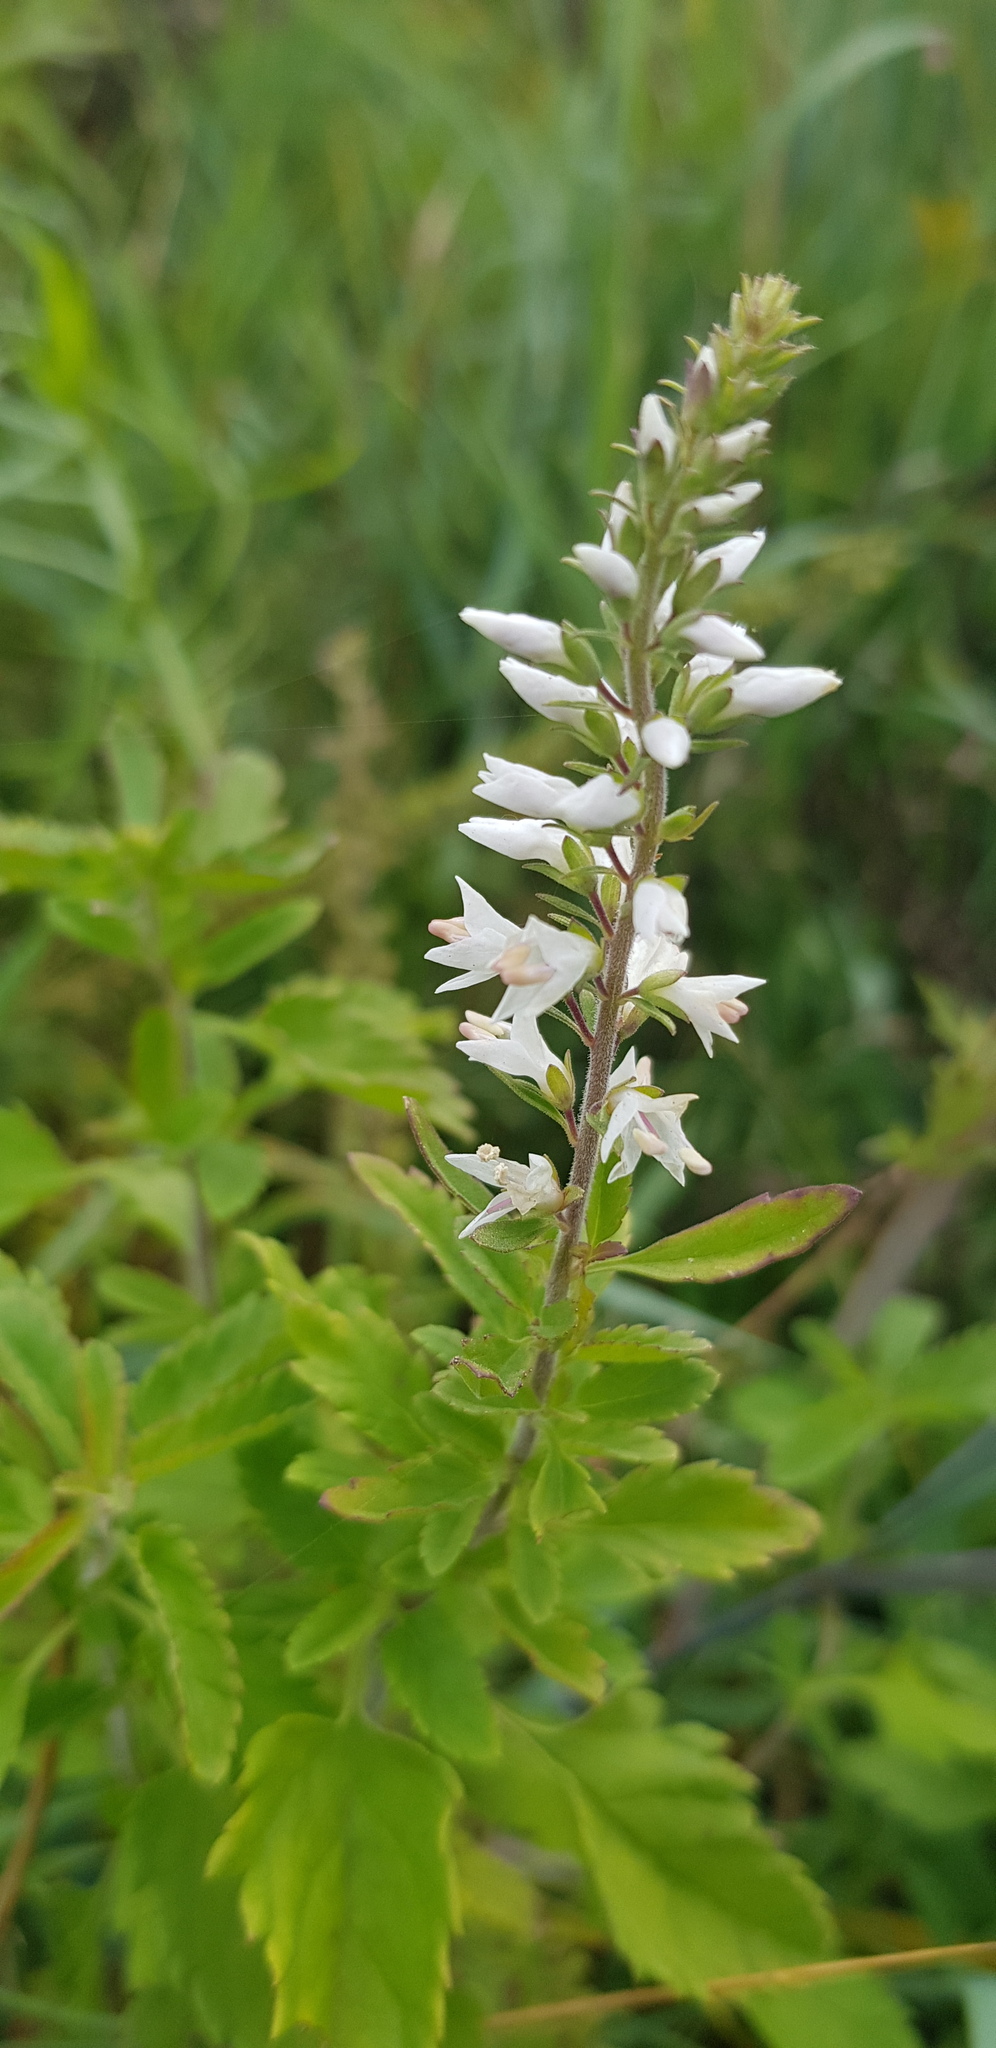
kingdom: Plantae
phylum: Tracheophyta
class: Magnoliopsida
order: Lamiales
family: Plantaginaceae
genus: Veronica
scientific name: Veronica daurica
